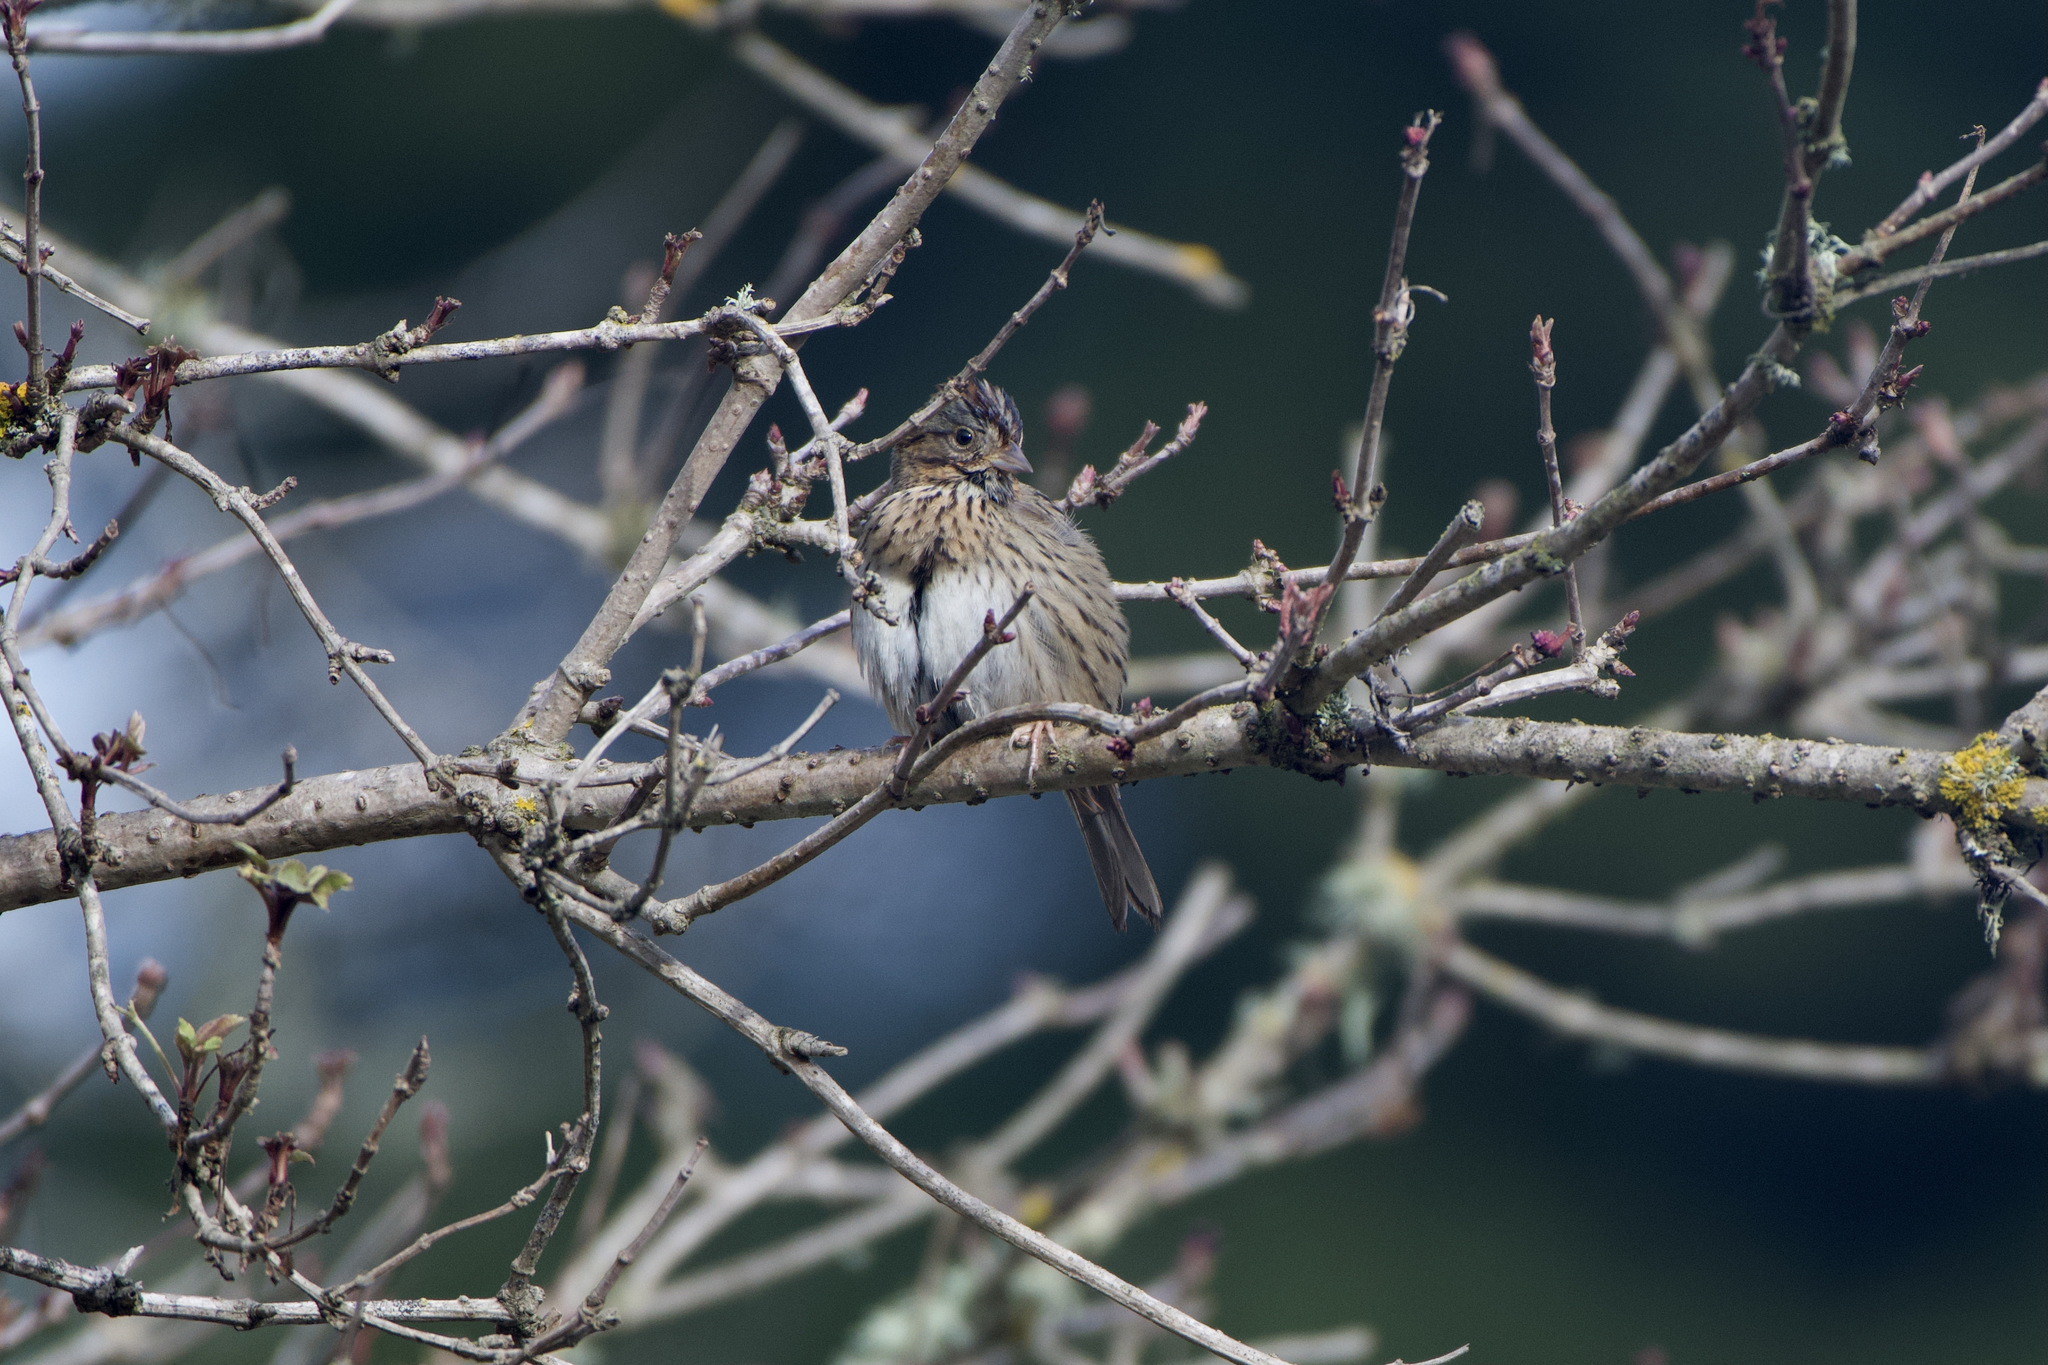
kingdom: Animalia
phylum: Chordata
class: Aves
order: Passeriformes
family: Passerellidae
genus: Melospiza
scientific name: Melospiza lincolnii
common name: Lincoln's sparrow
